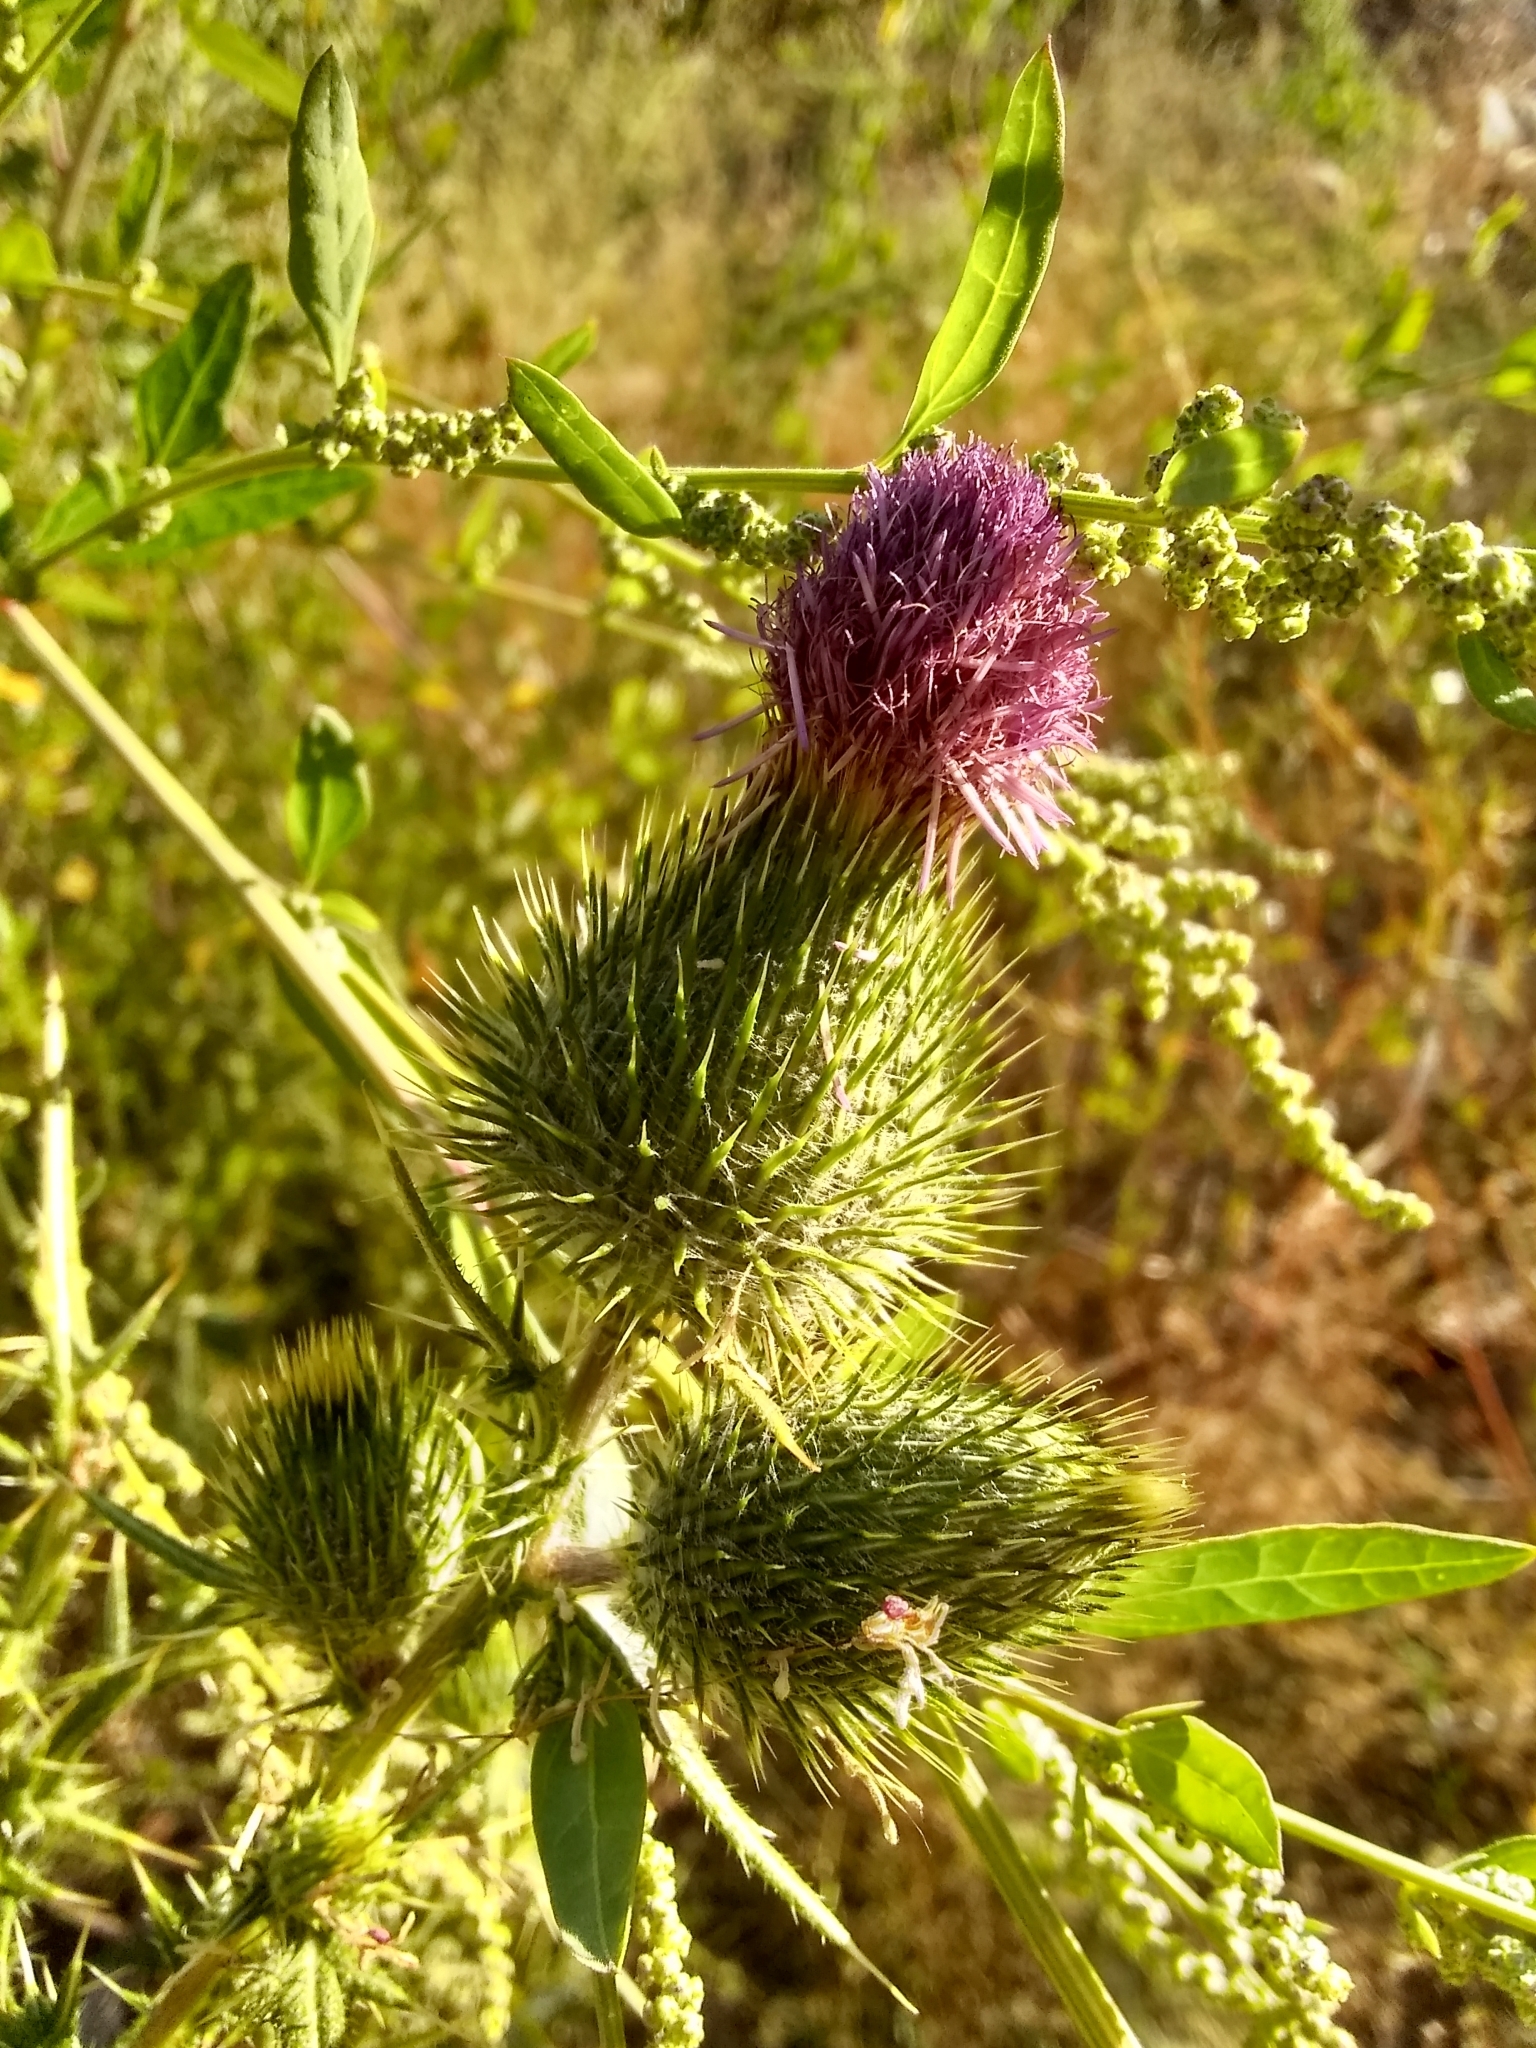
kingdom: Plantae
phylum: Tracheophyta
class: Magnoliopsida
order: Asterales
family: Asteraceae
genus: Cirsium
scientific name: Cirsium vulgare
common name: Bull thistle
